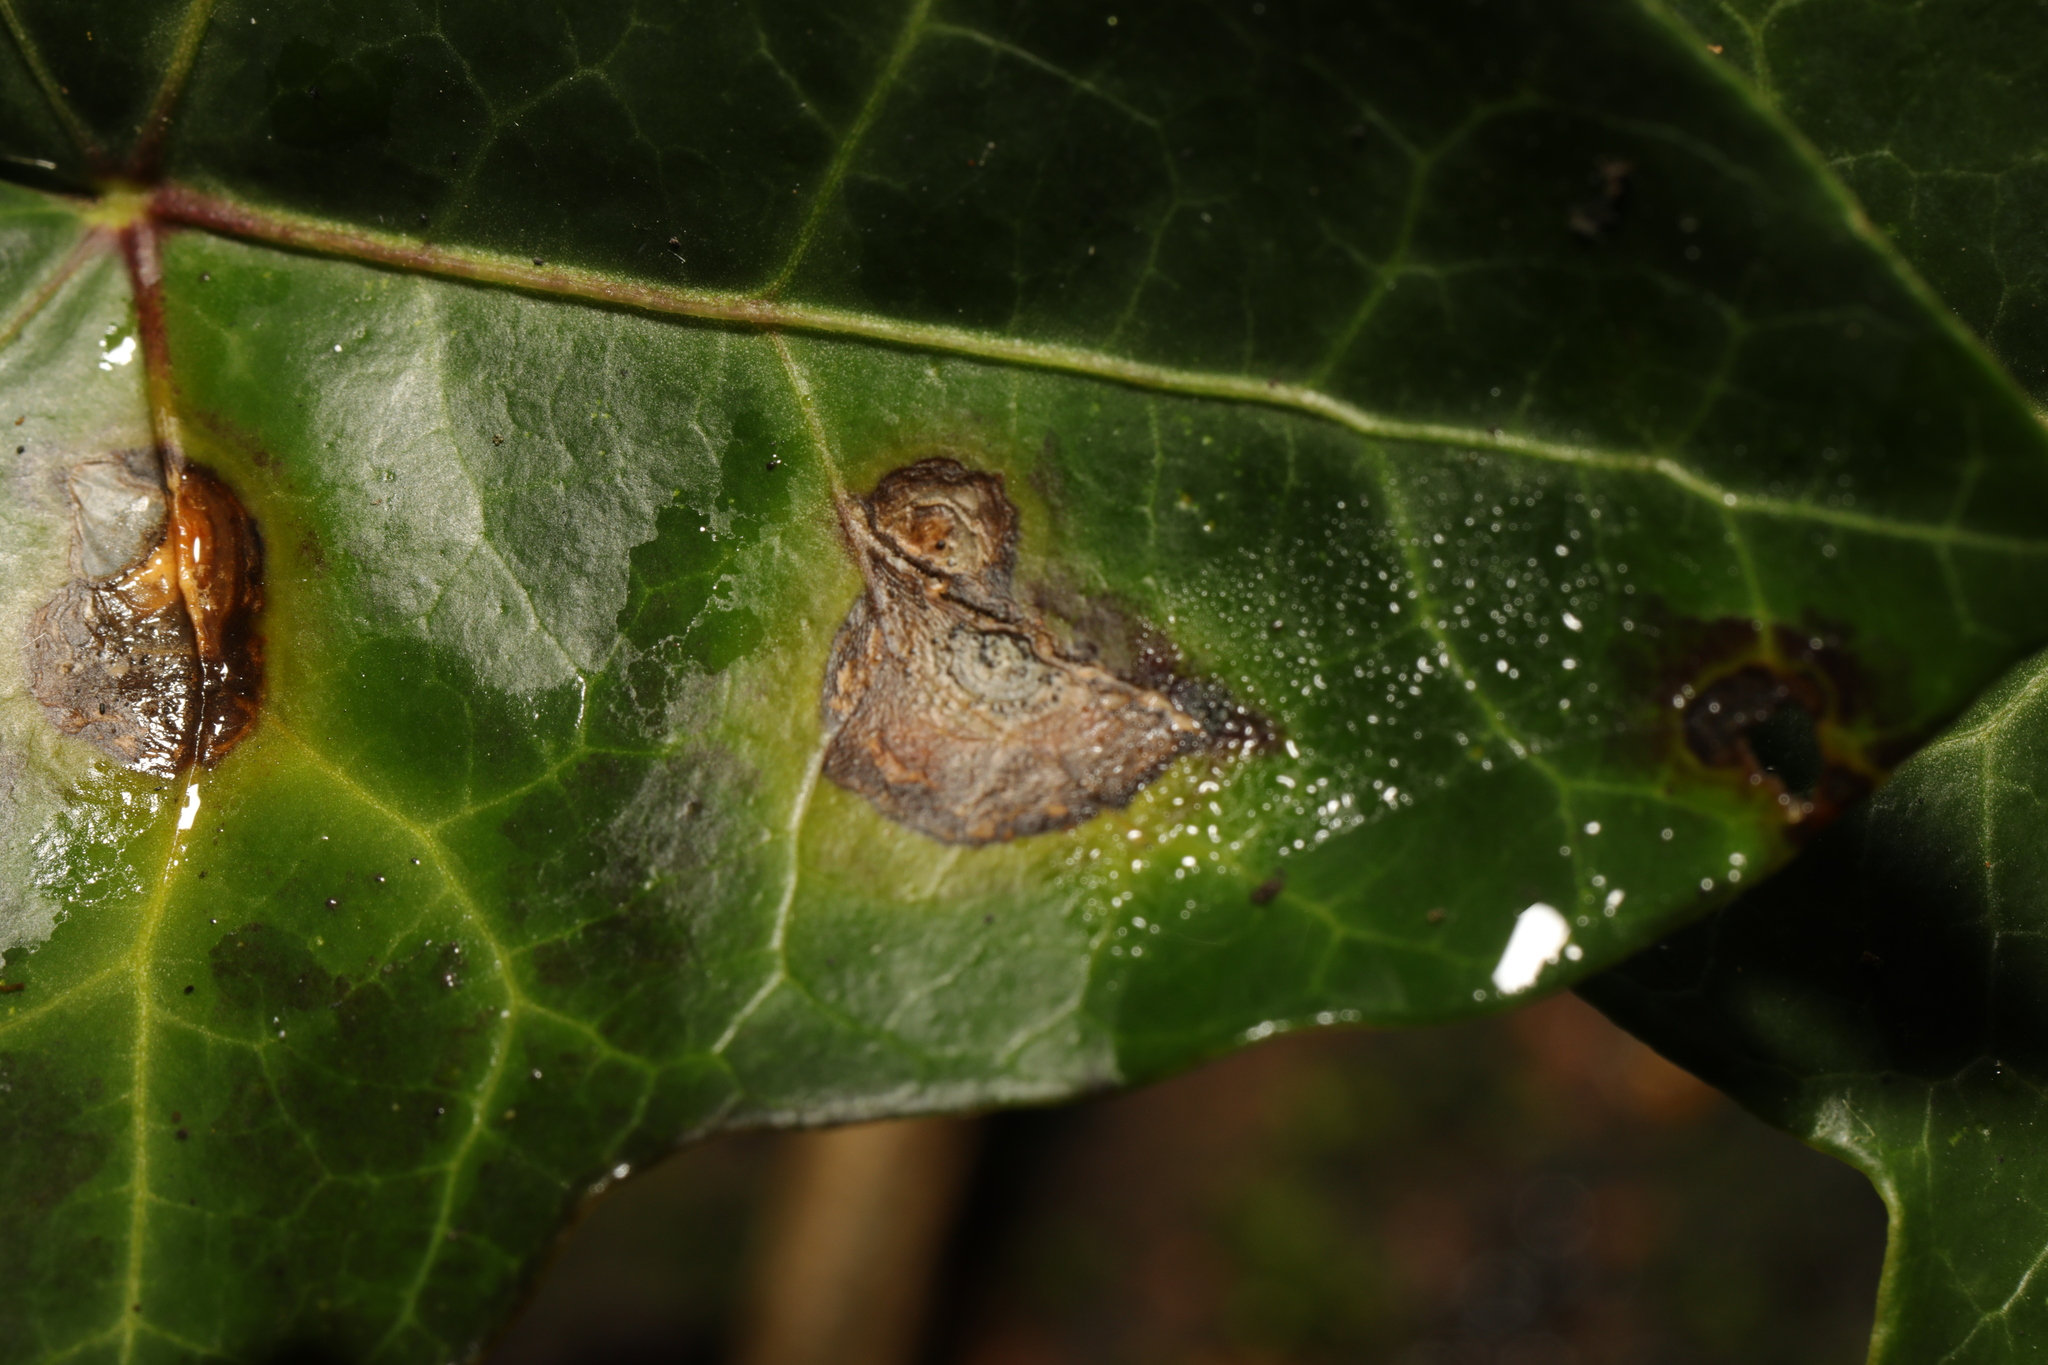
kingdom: Fungi
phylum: Ascomycota
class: Dothideomycetes
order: Pleosporales
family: Didymellaceae
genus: Boeremia
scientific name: Boeremia hedericola
